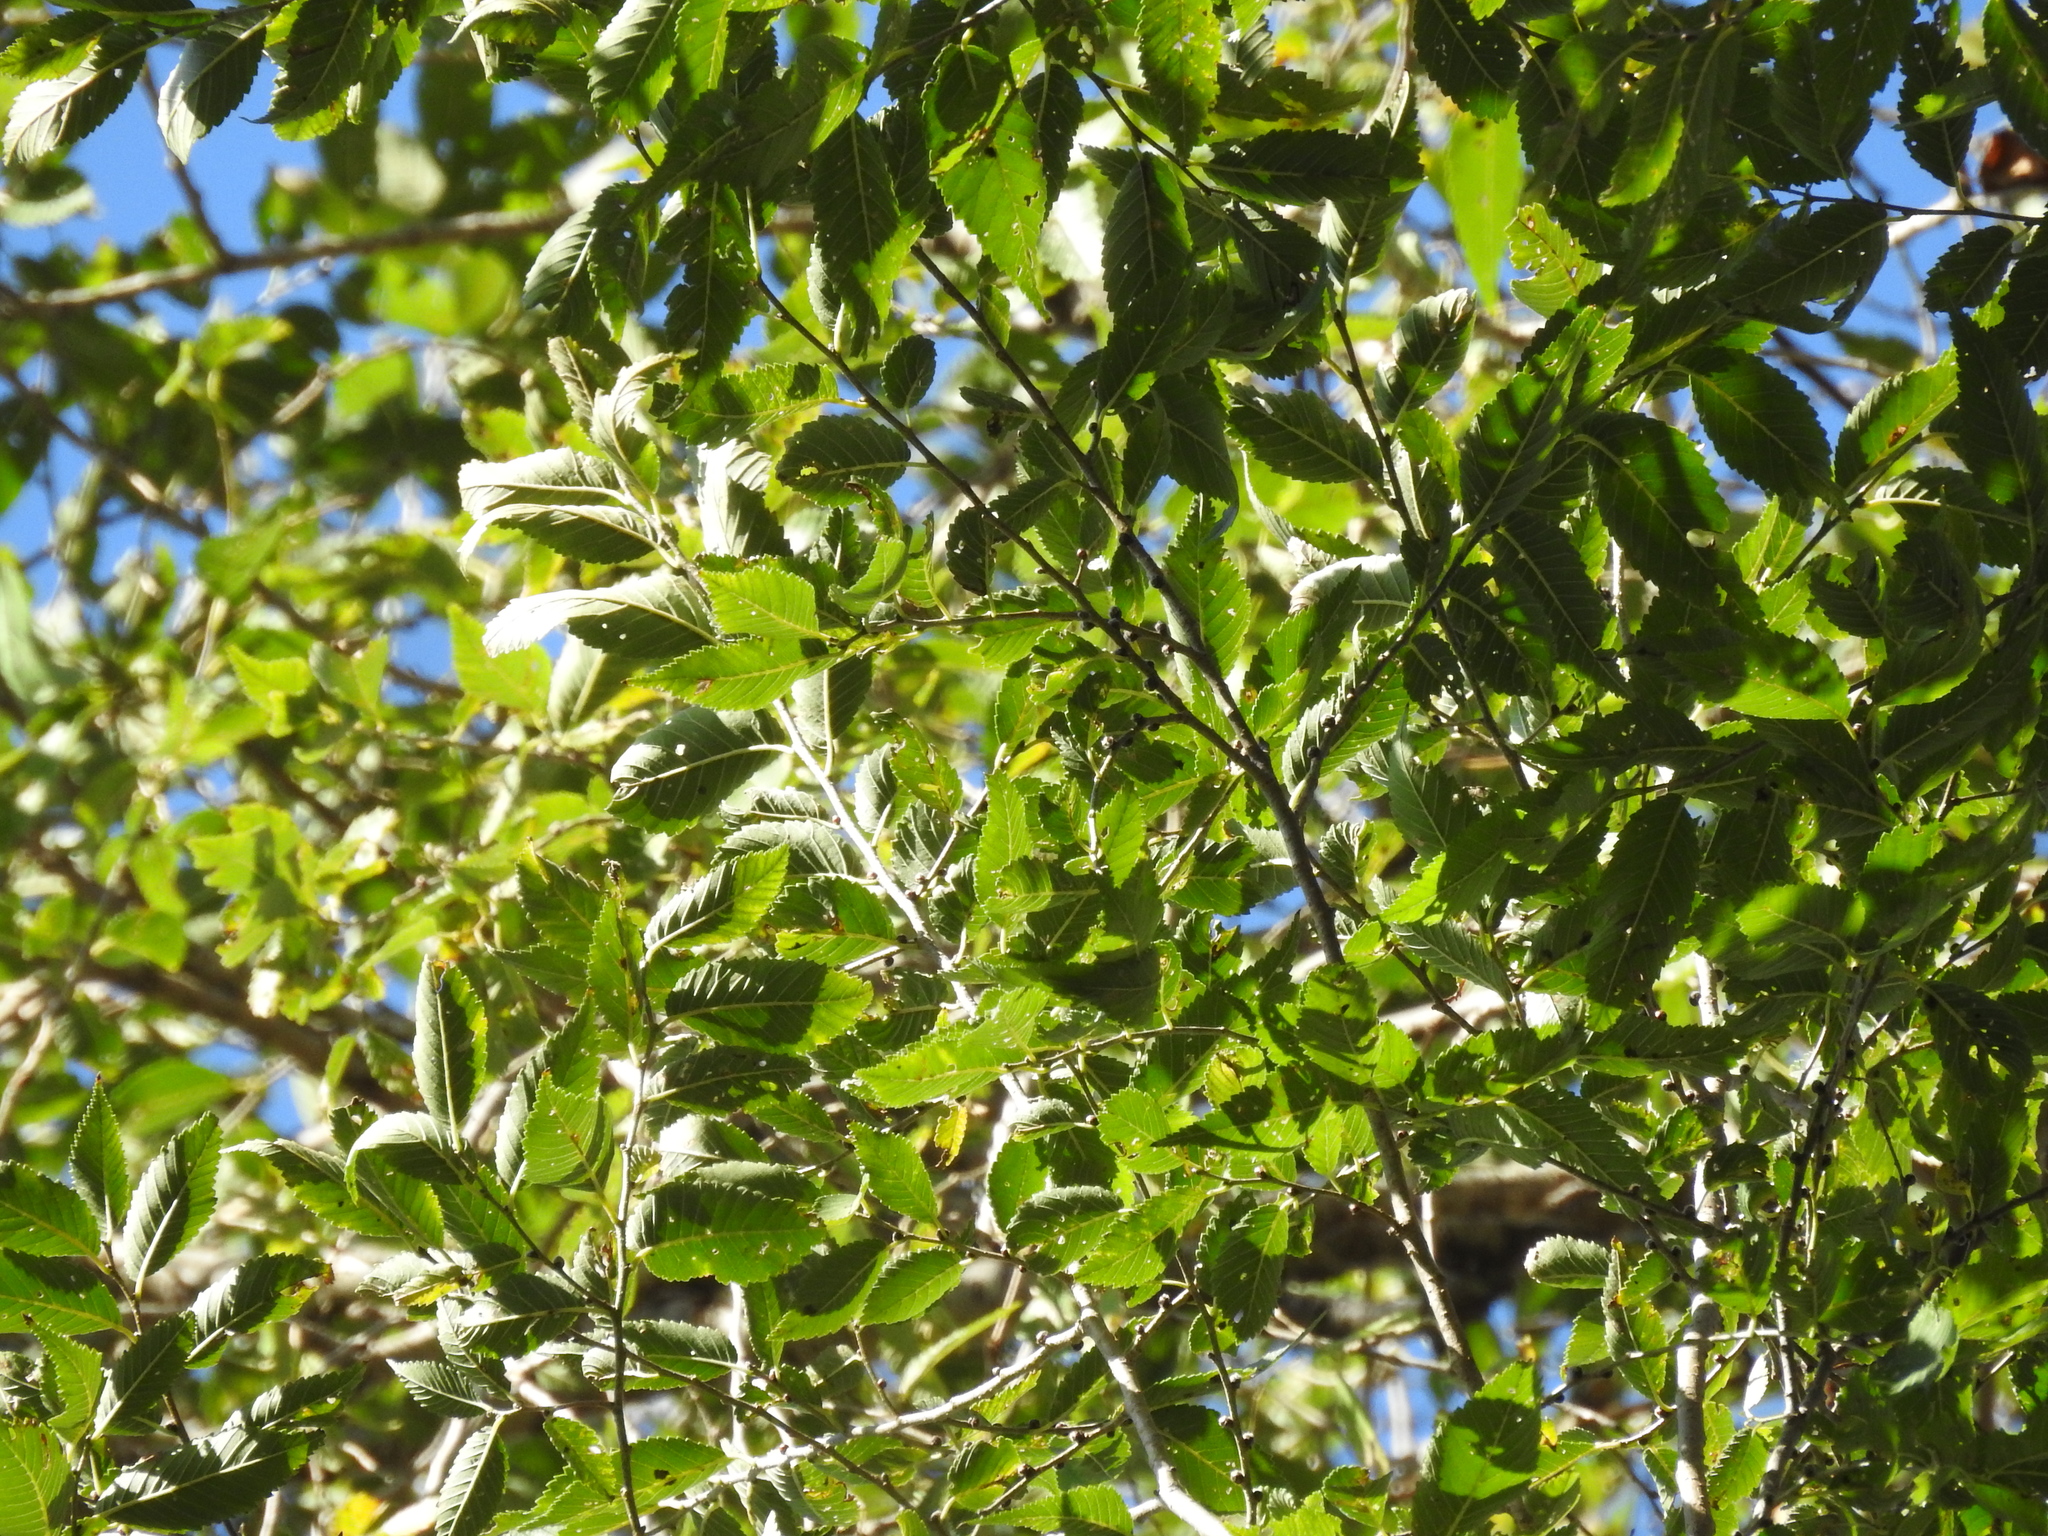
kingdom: Plantae
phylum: Tracheophyta
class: Magnoliopsida
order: Rosales
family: Ulmaceae
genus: Ulmus
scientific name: Ulmus americana
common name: American elm
